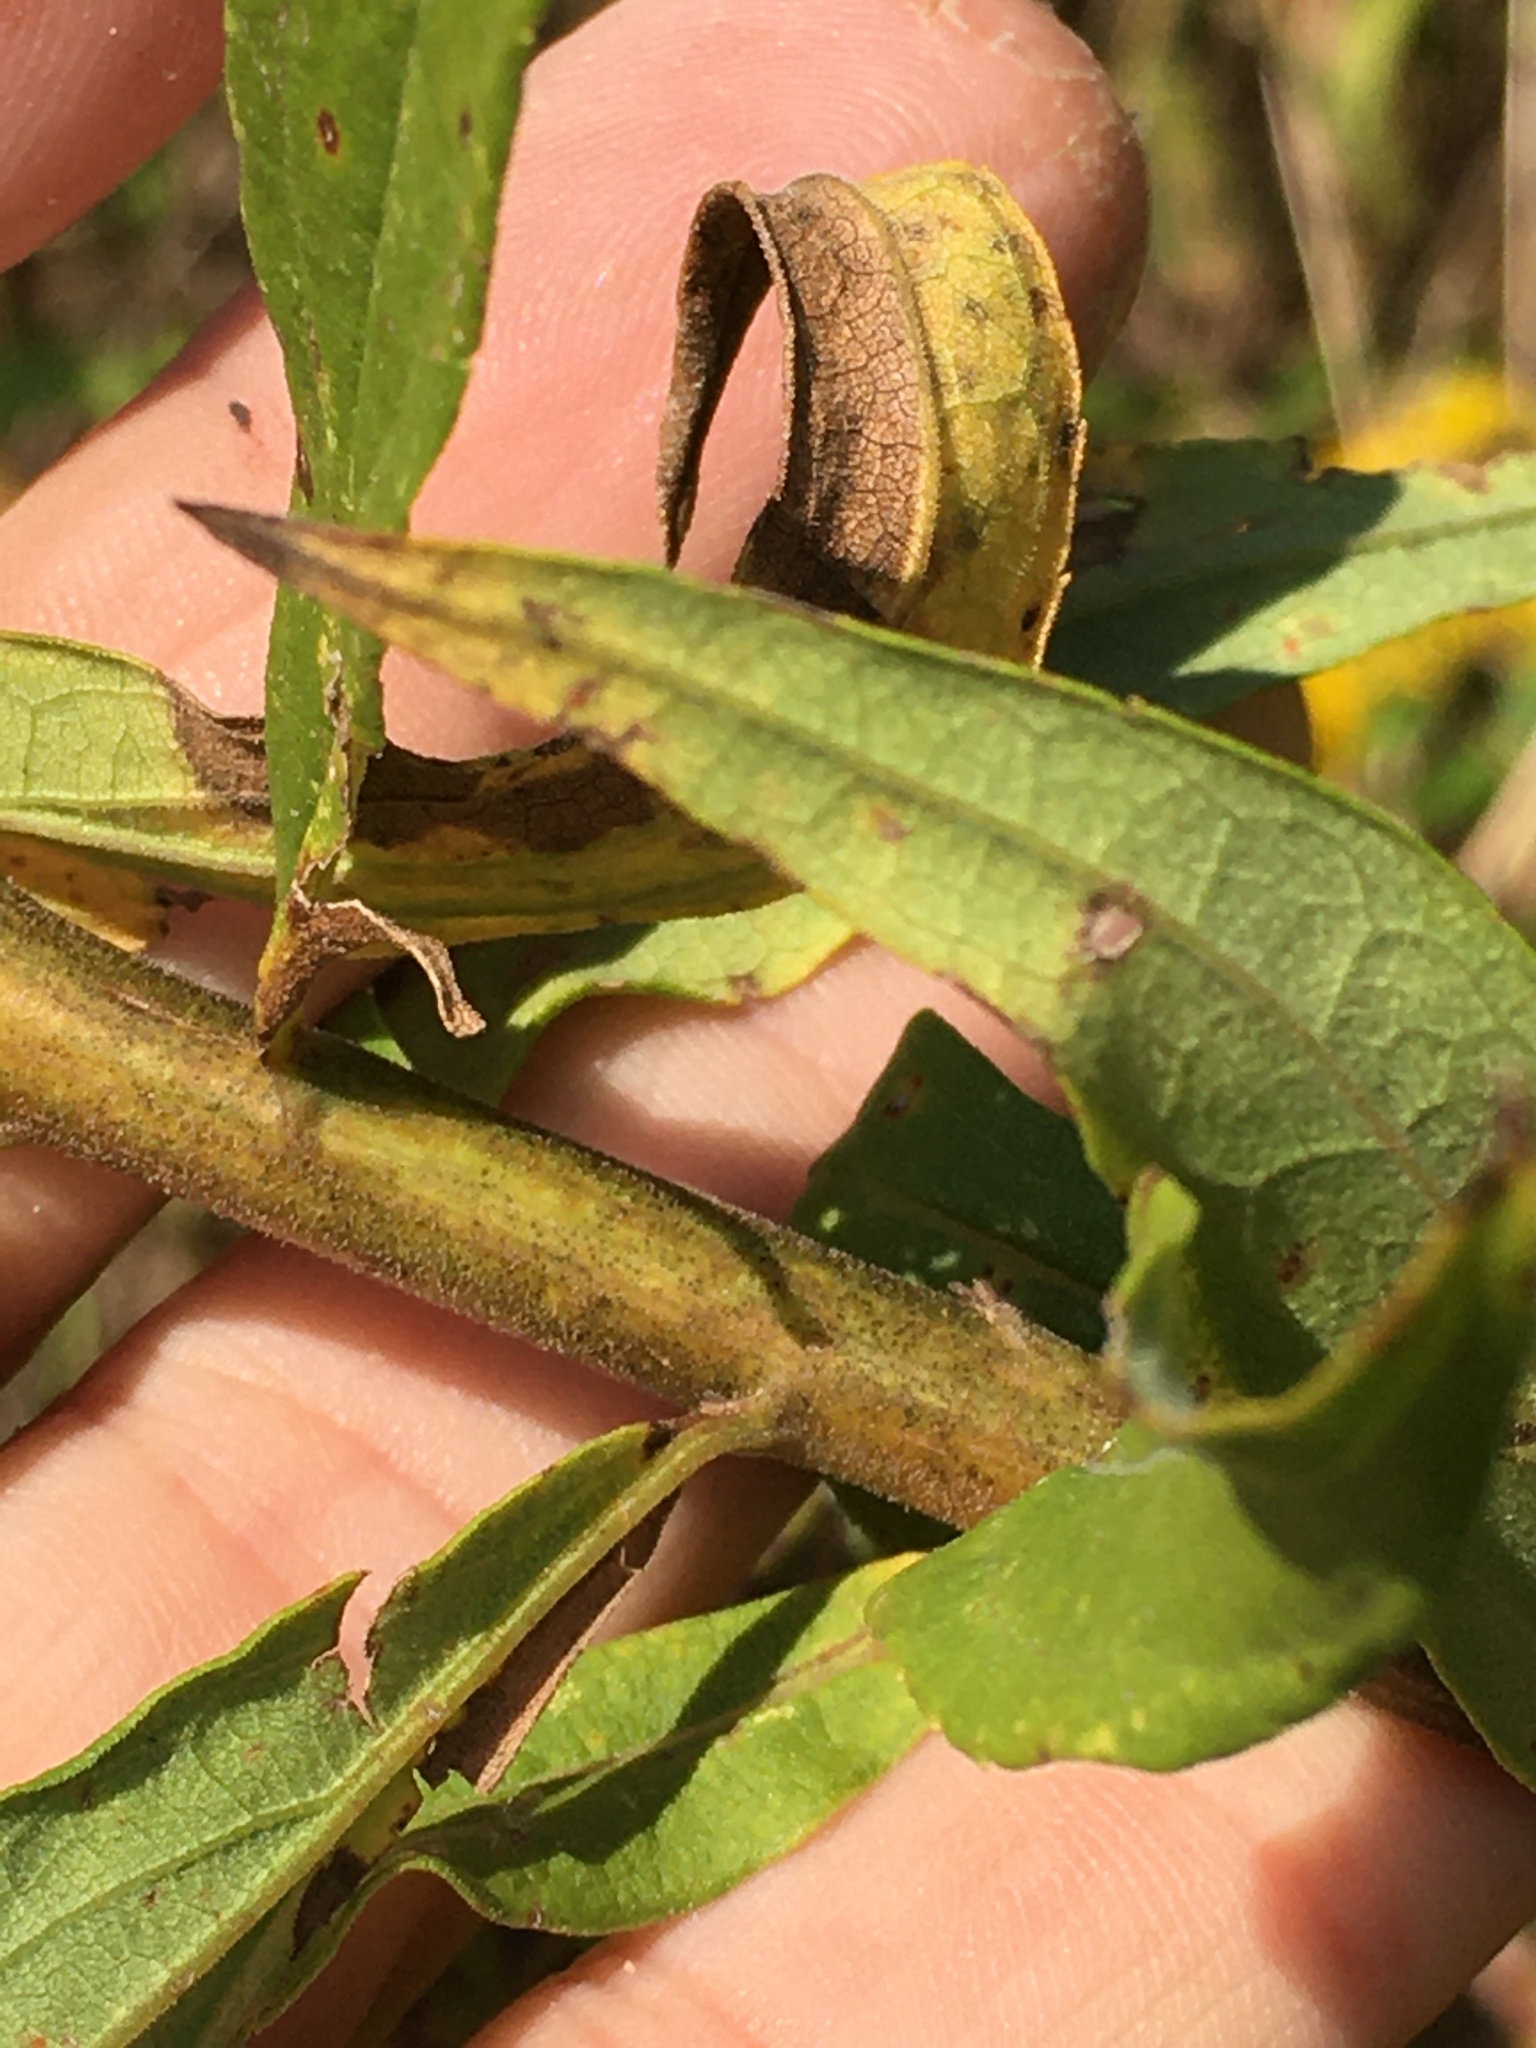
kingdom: Plantae
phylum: Tracheophyta
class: Magnoliopsida
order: Asterales
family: Asteraceae
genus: Solidago
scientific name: Solidago altissima
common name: Late goldenrod
